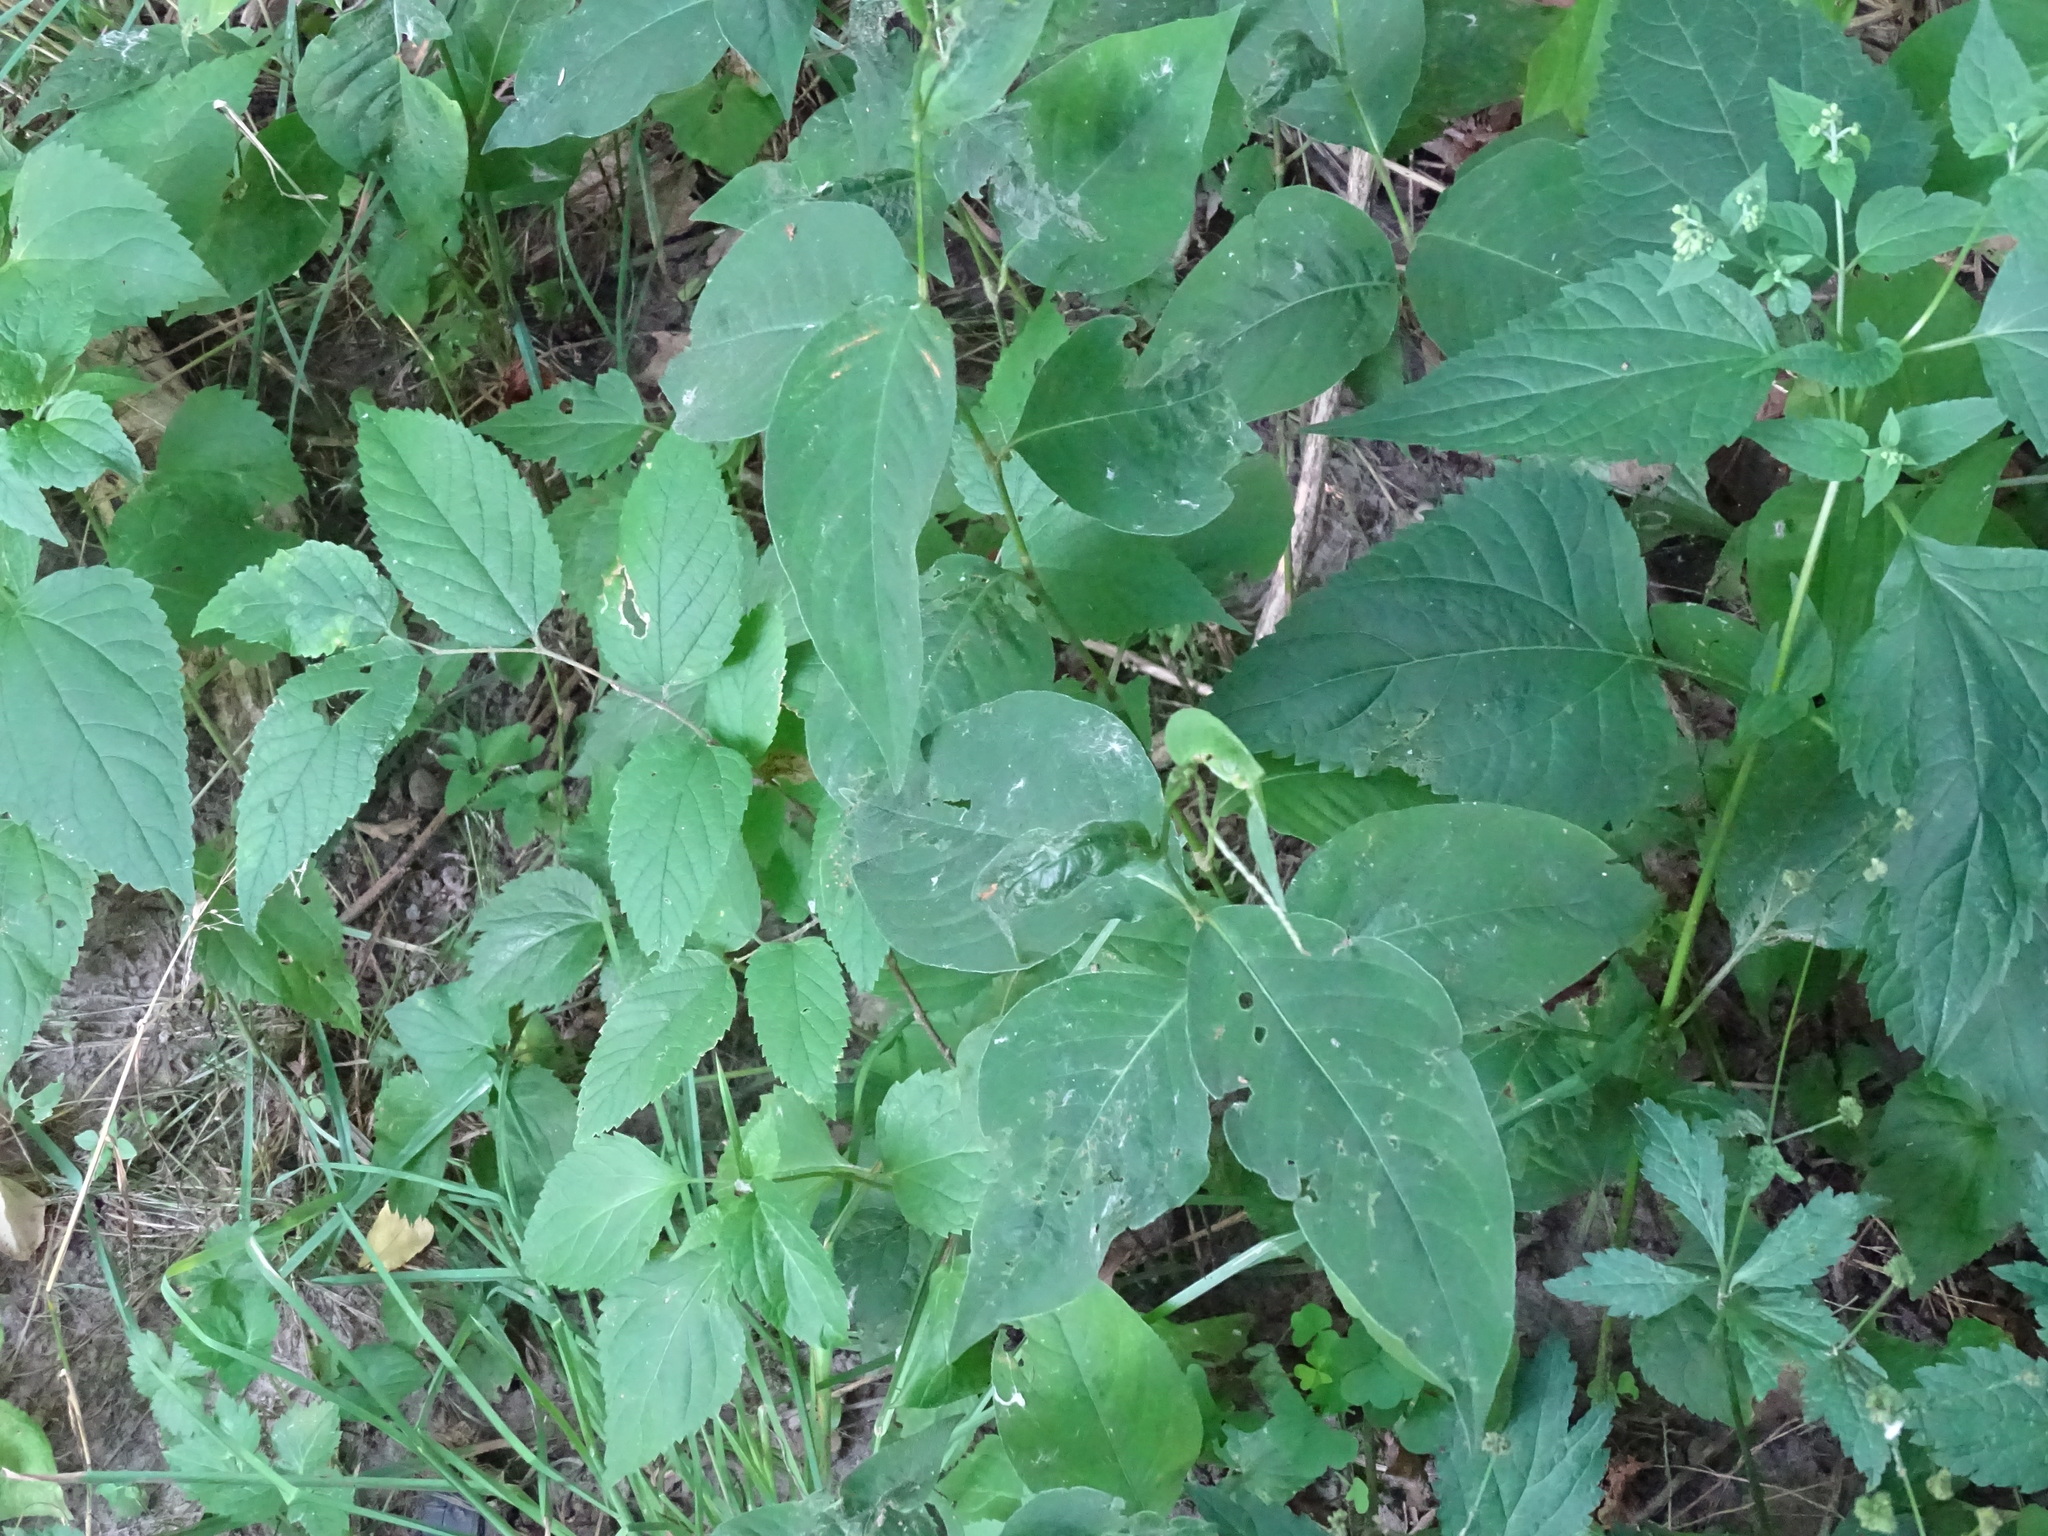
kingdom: Plantae
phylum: Tracheophyta
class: Magnoliopsida
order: Caryophyllales
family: Polygonaceae
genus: Persicaria
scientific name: Persicaria virginiana
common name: Jumpseed
